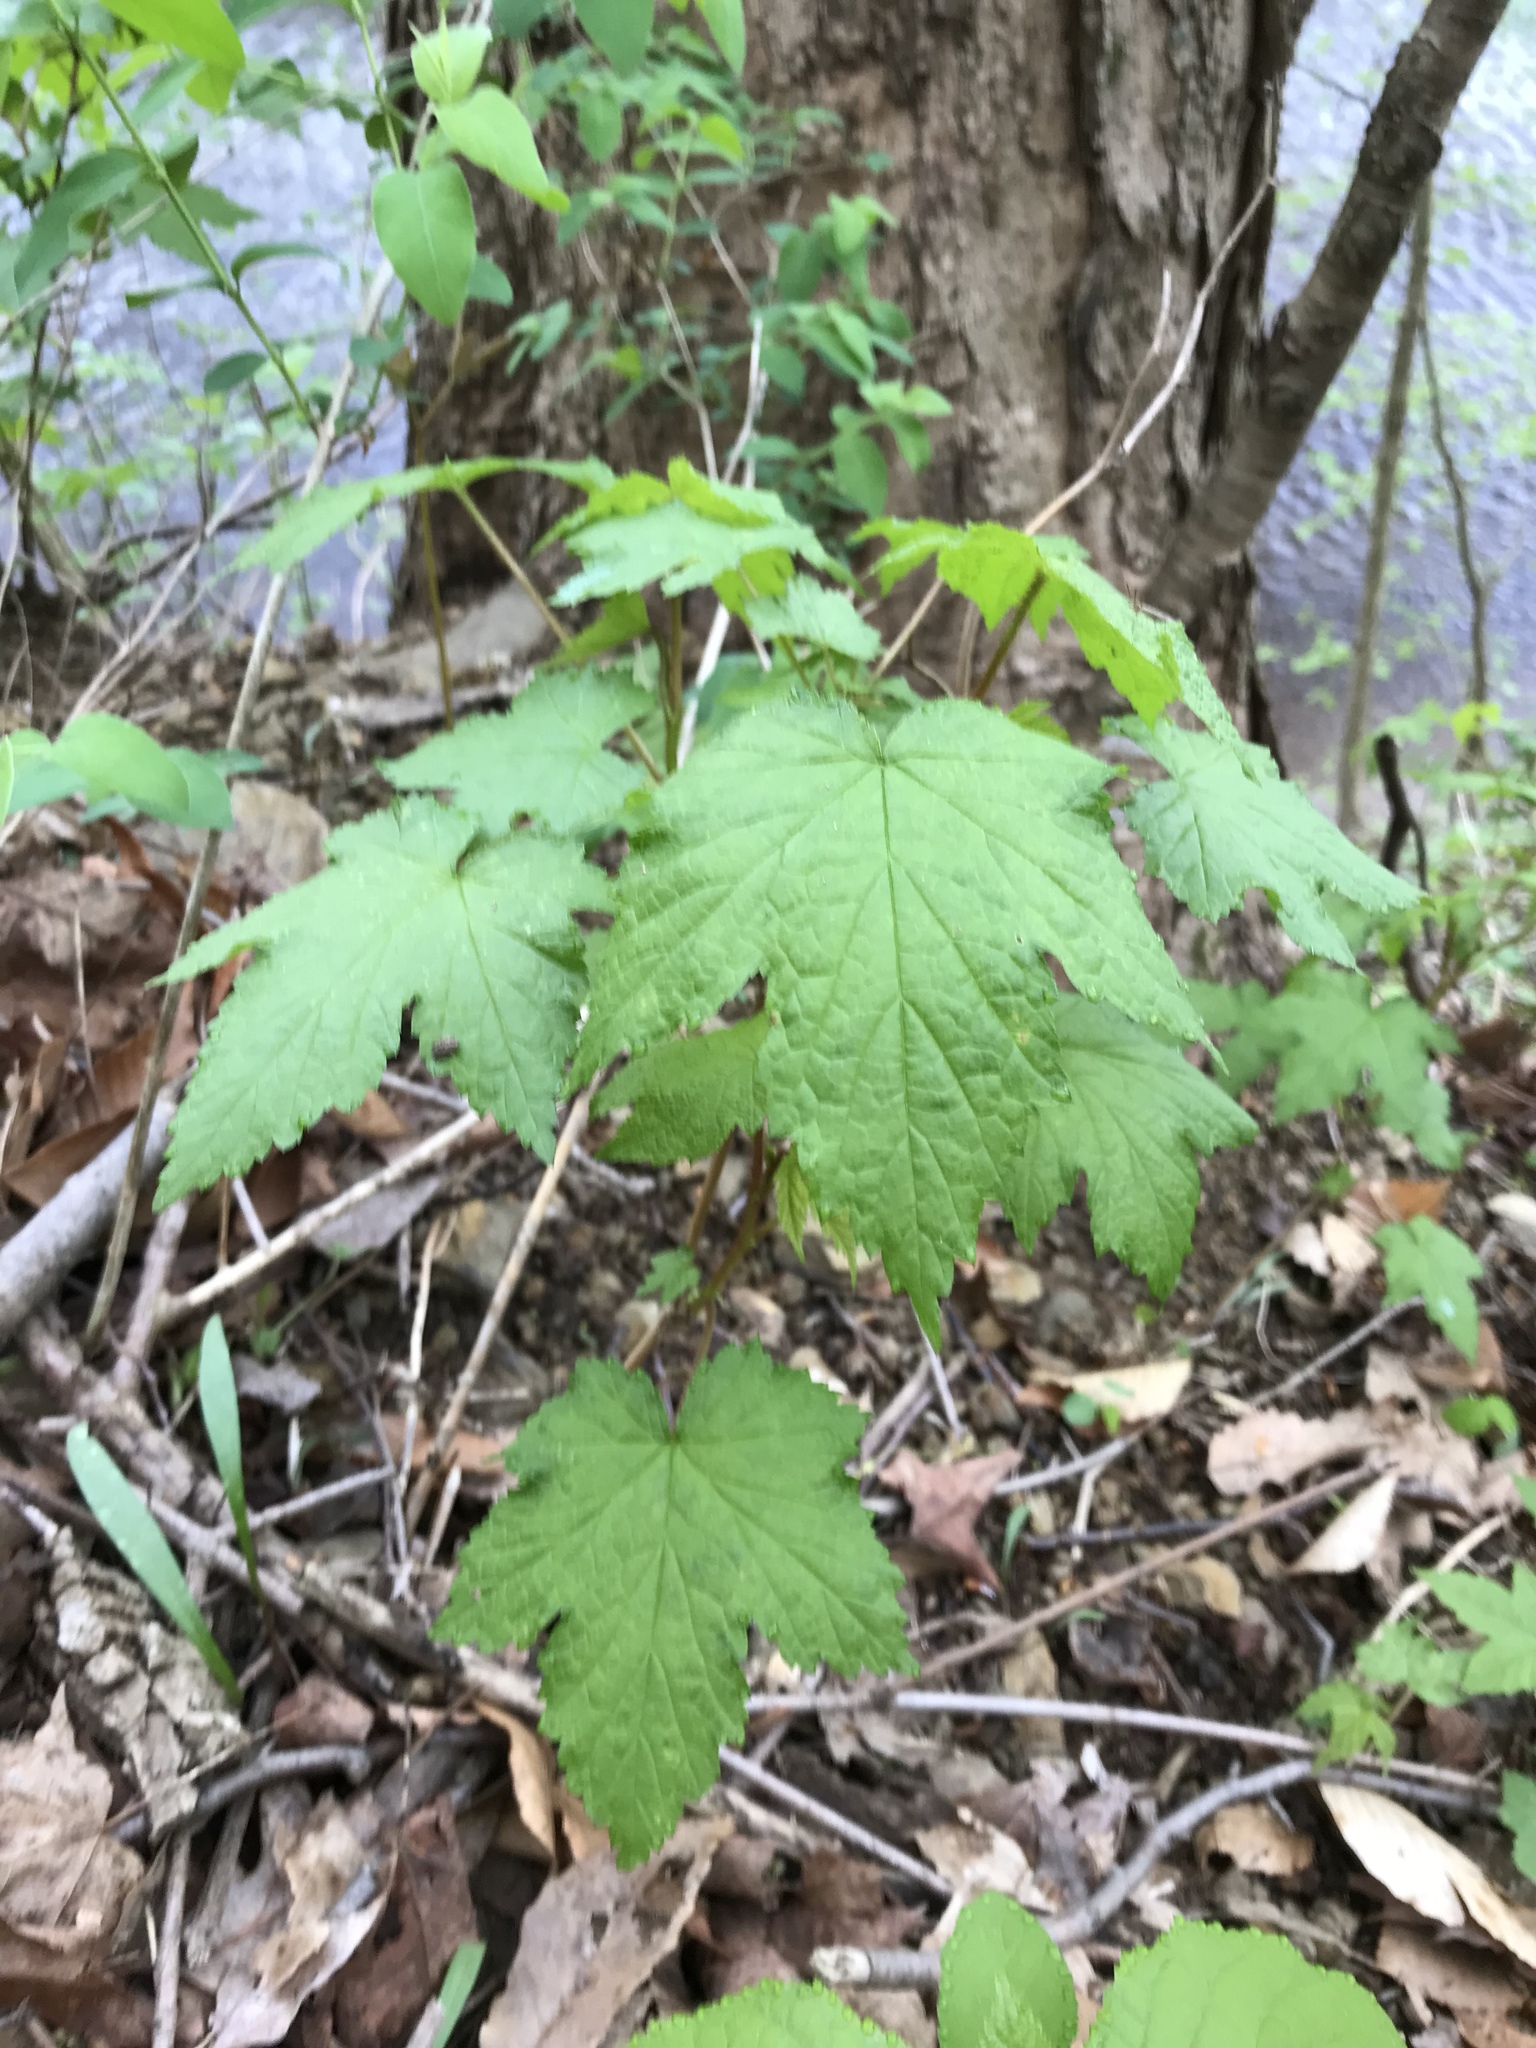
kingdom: Plantae
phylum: Tracheophyta
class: Magnoliopsida
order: Rosales
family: Rosaceae
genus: Rubus
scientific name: Rubus odoratus
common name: Purple-flowered raspberry
